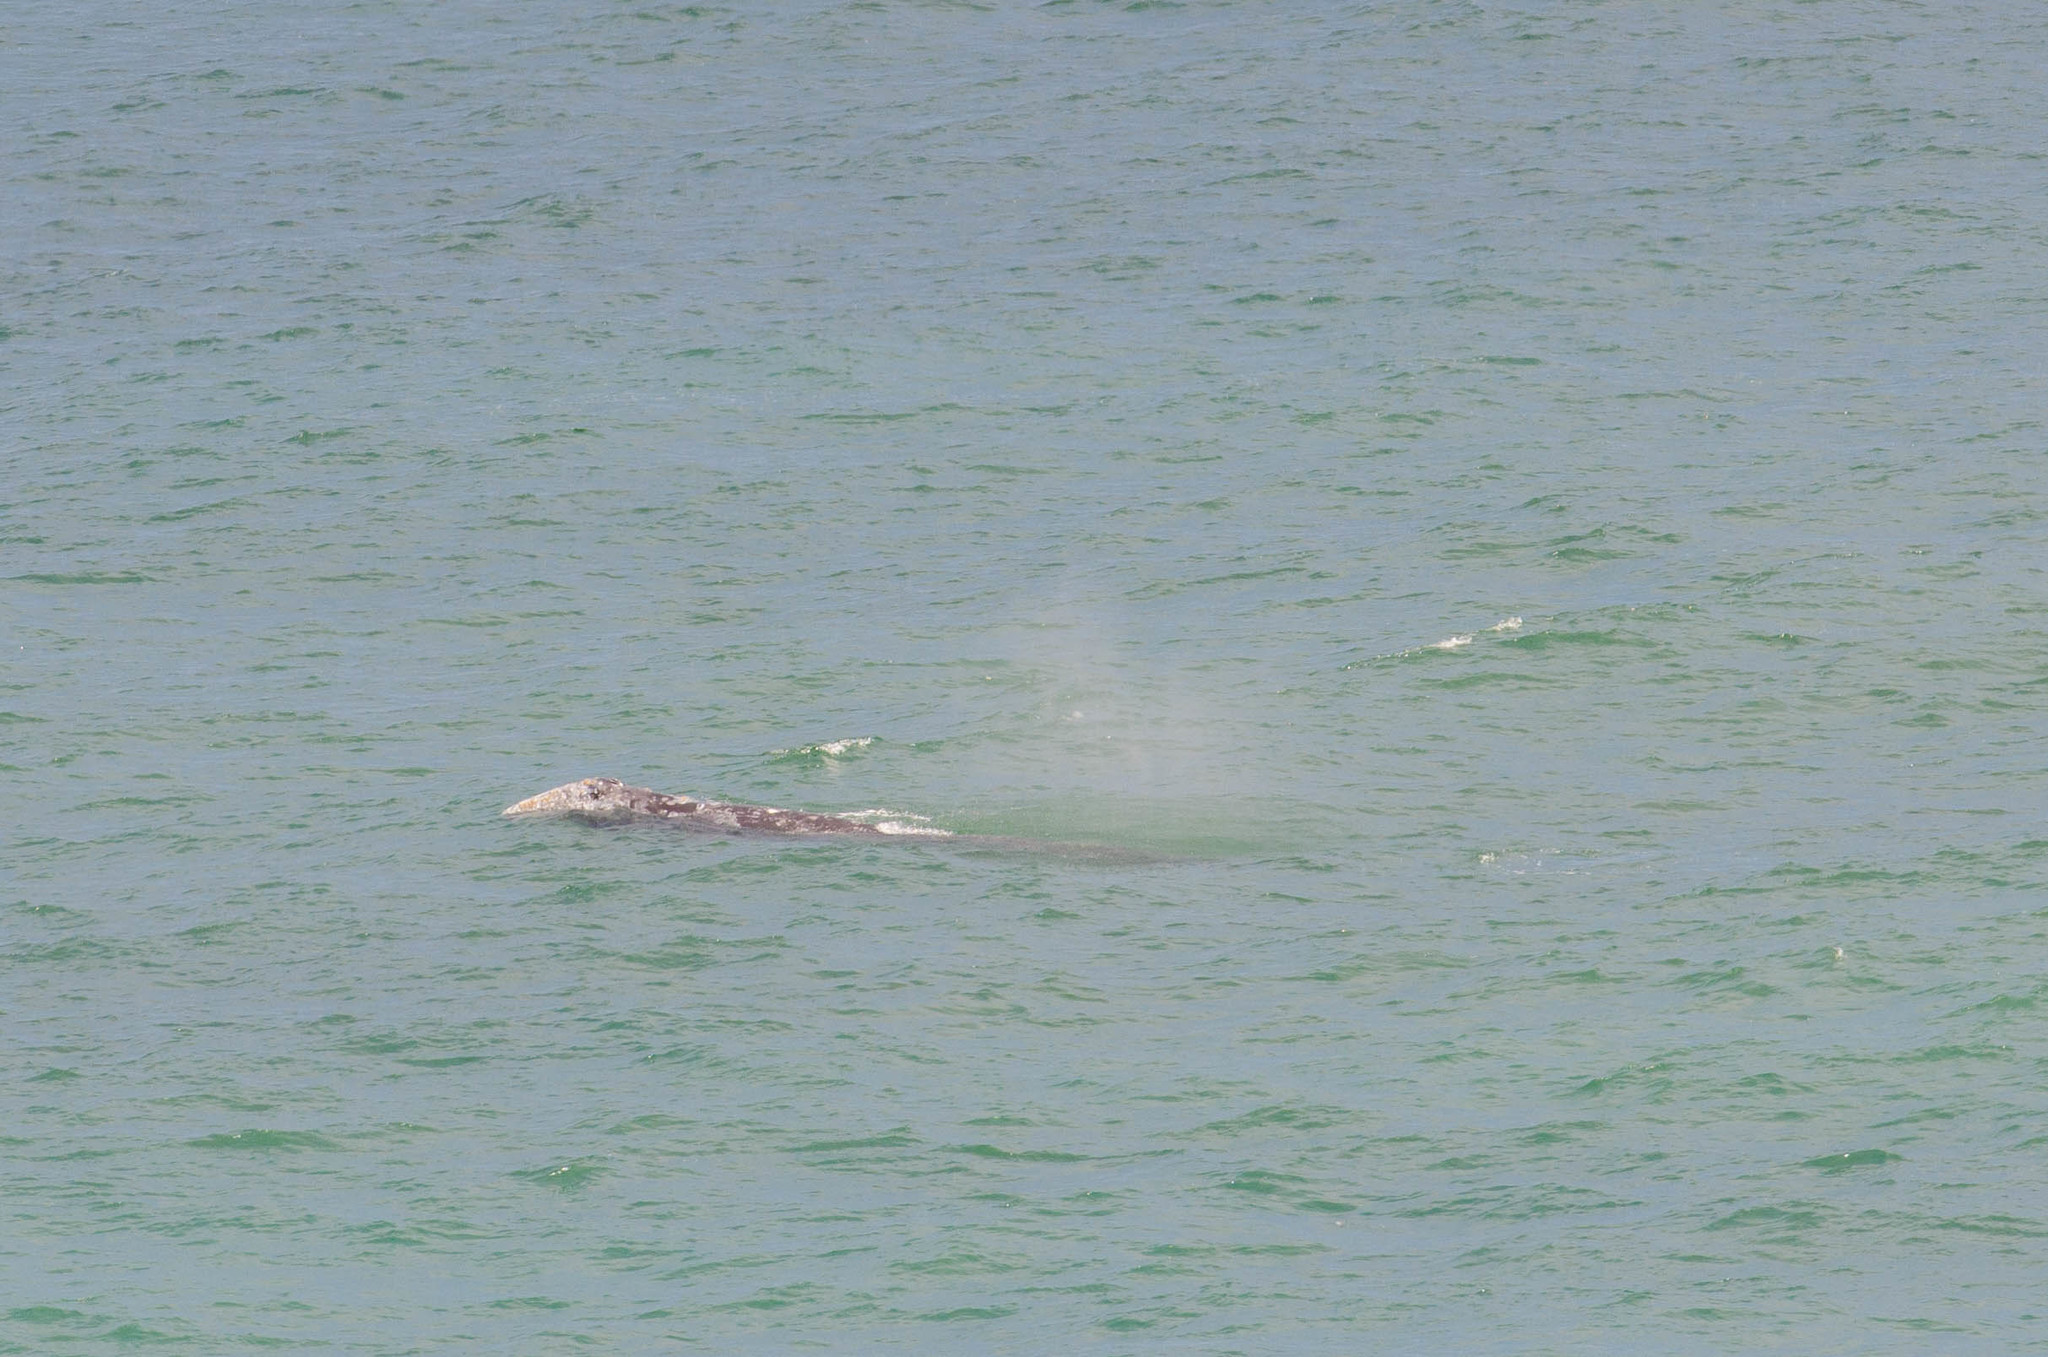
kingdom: Animalia
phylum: Chordata
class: Mammalia
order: Cetacea
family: Eschrichtiidae
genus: Eschrichtius
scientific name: Eschrichtius robustus
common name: Gray whale
